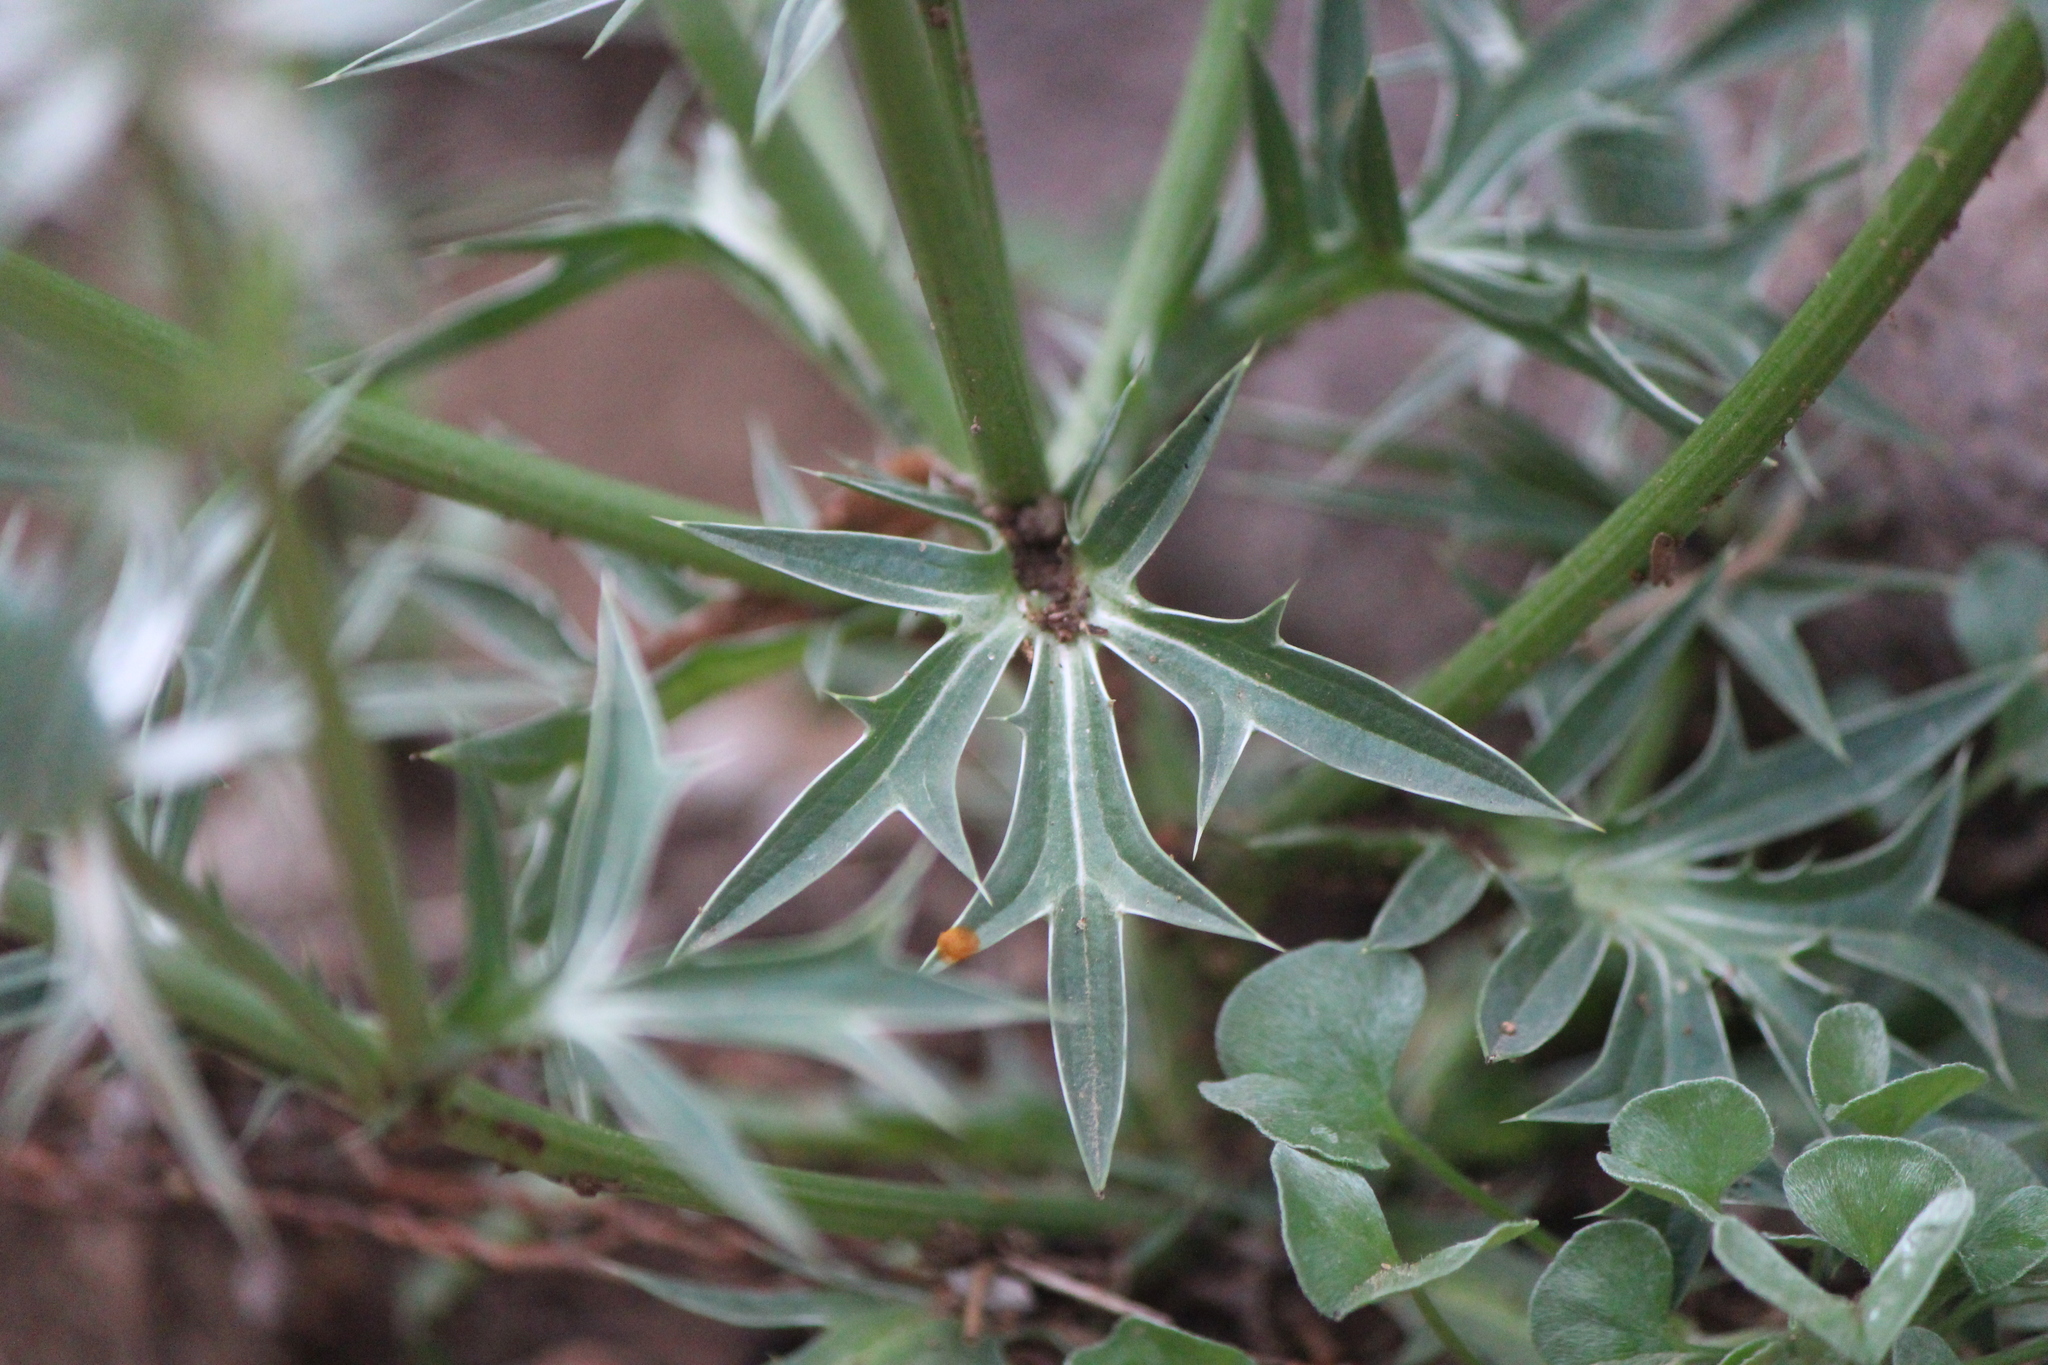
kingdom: Plantae
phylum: Tracheophyta
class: Magnoliopsida
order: Apiales
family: Apiaceae
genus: Eryngium
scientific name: Eryngium comosum
